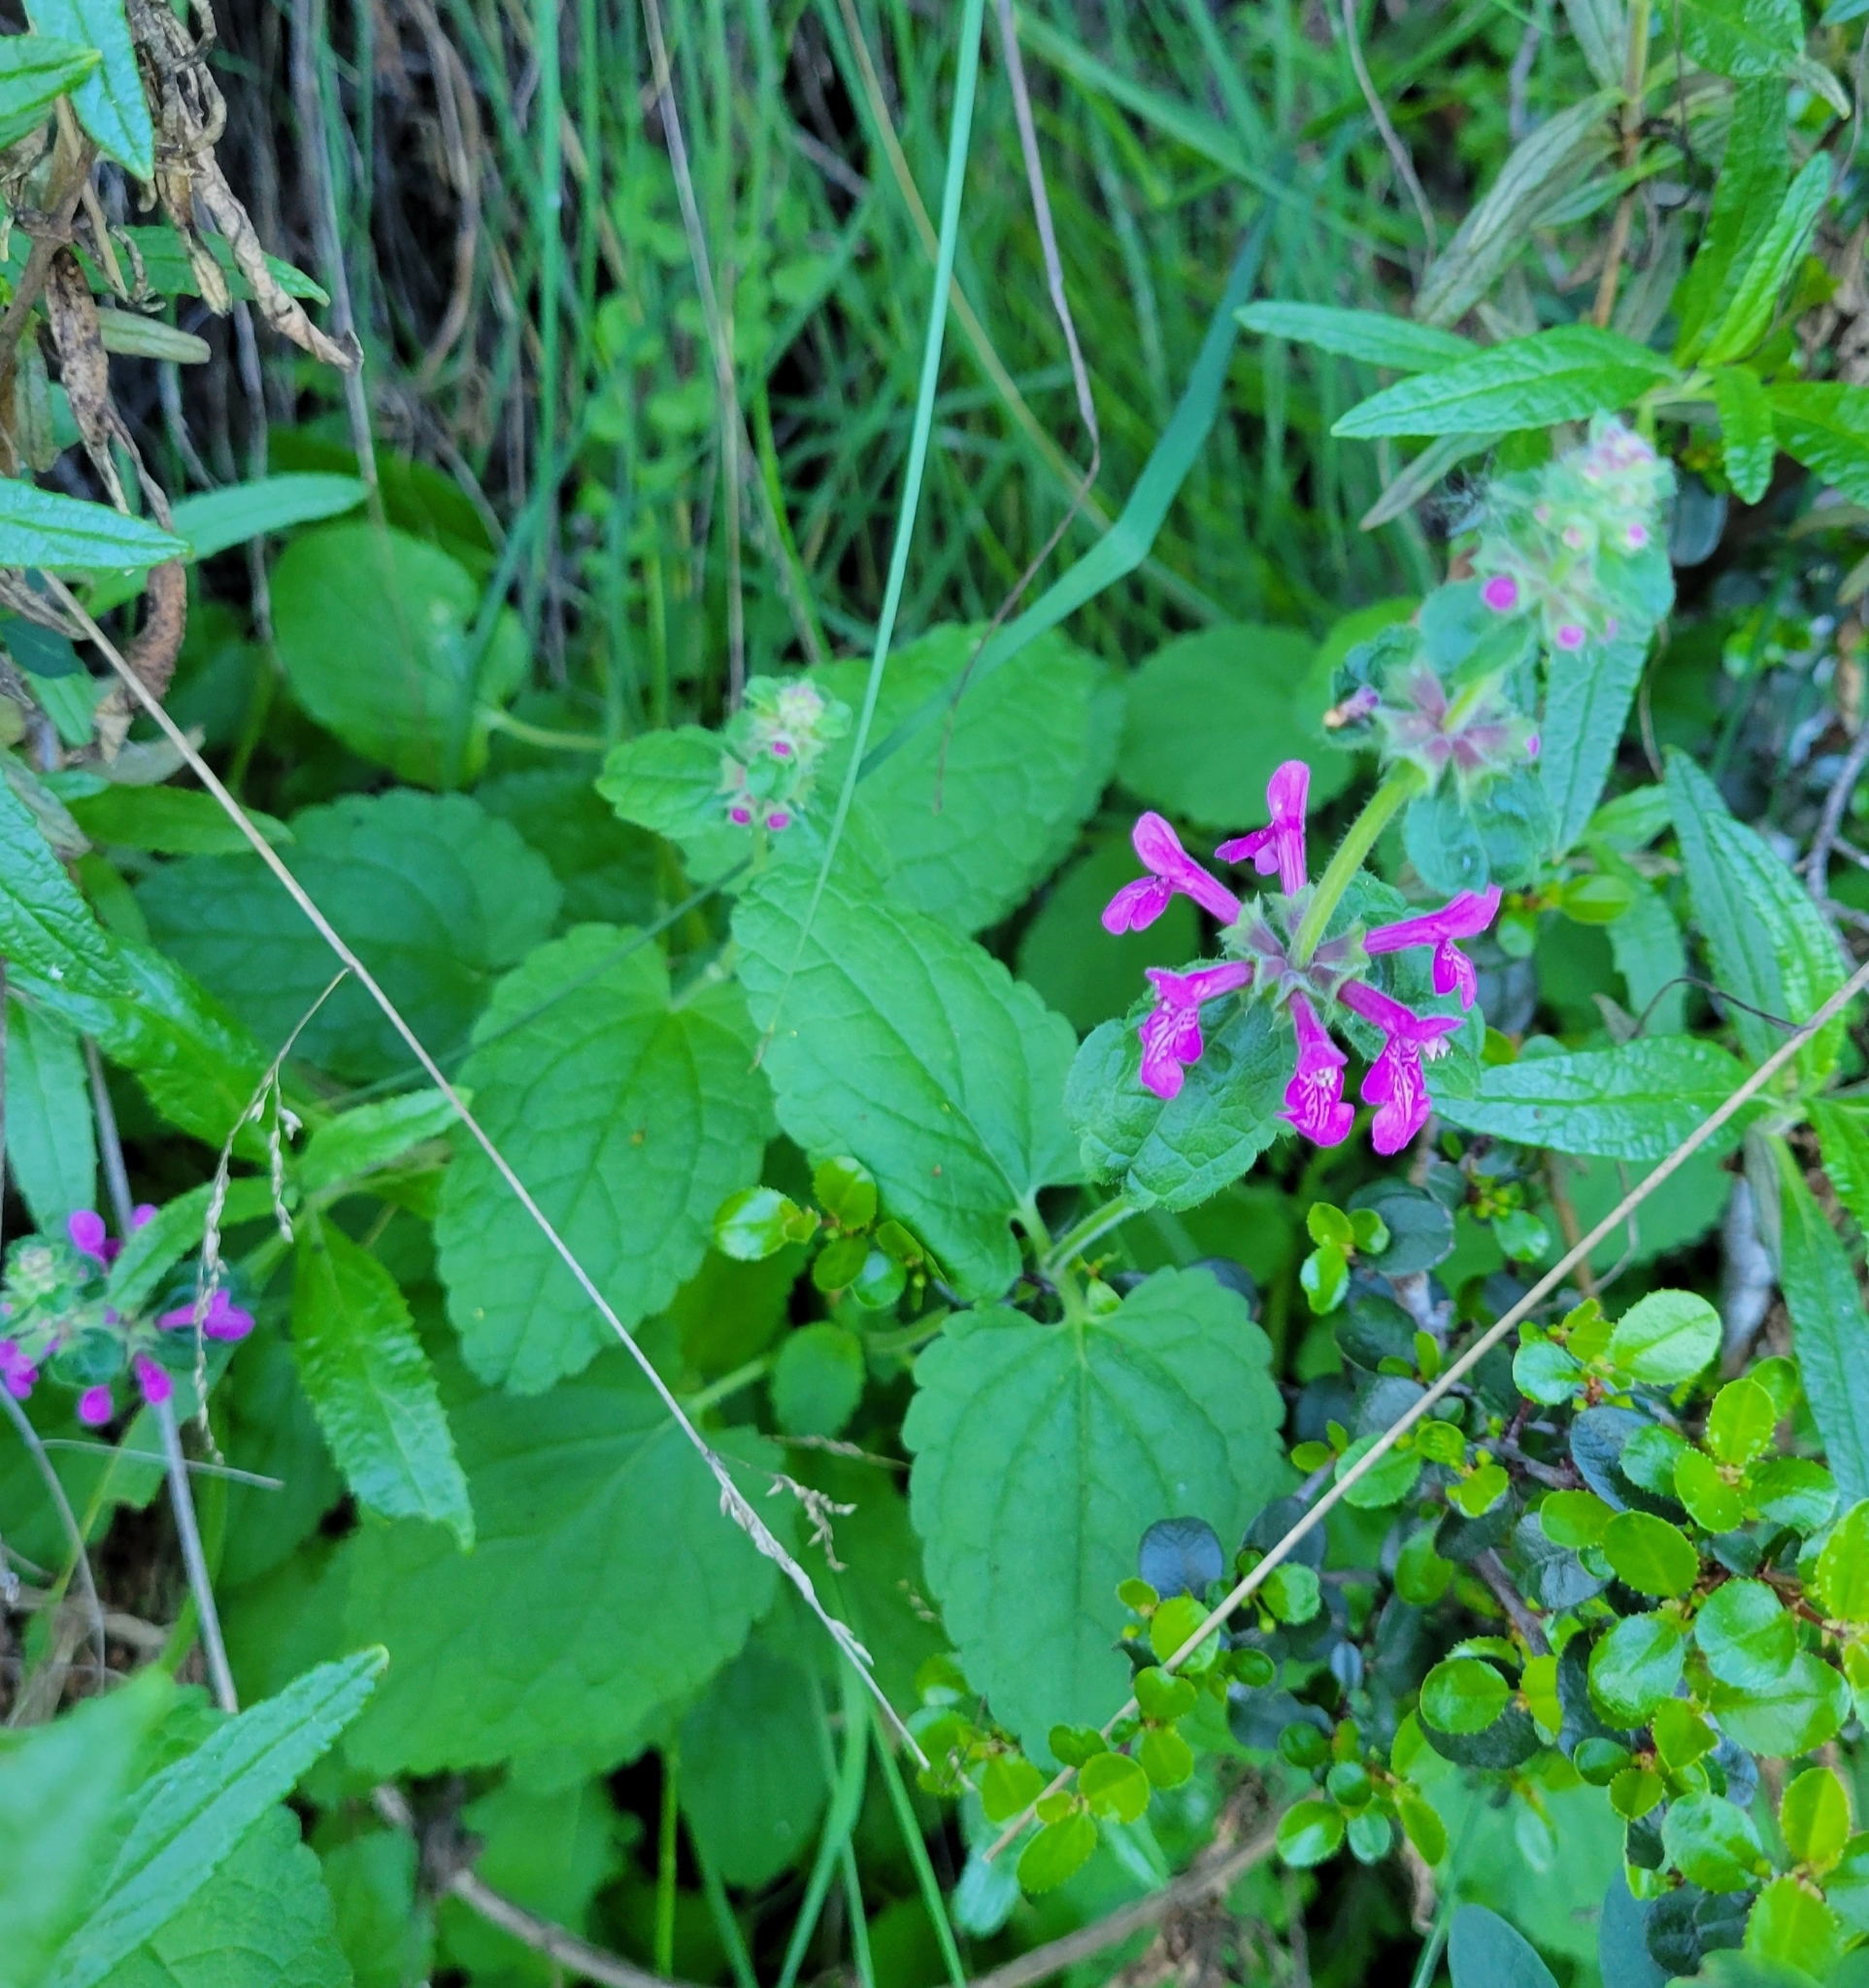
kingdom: Plantae
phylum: Tracheophyta
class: Magnoliopsida
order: Lamiales
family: Lamiaceae
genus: Stachys
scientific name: Stachys bullata
